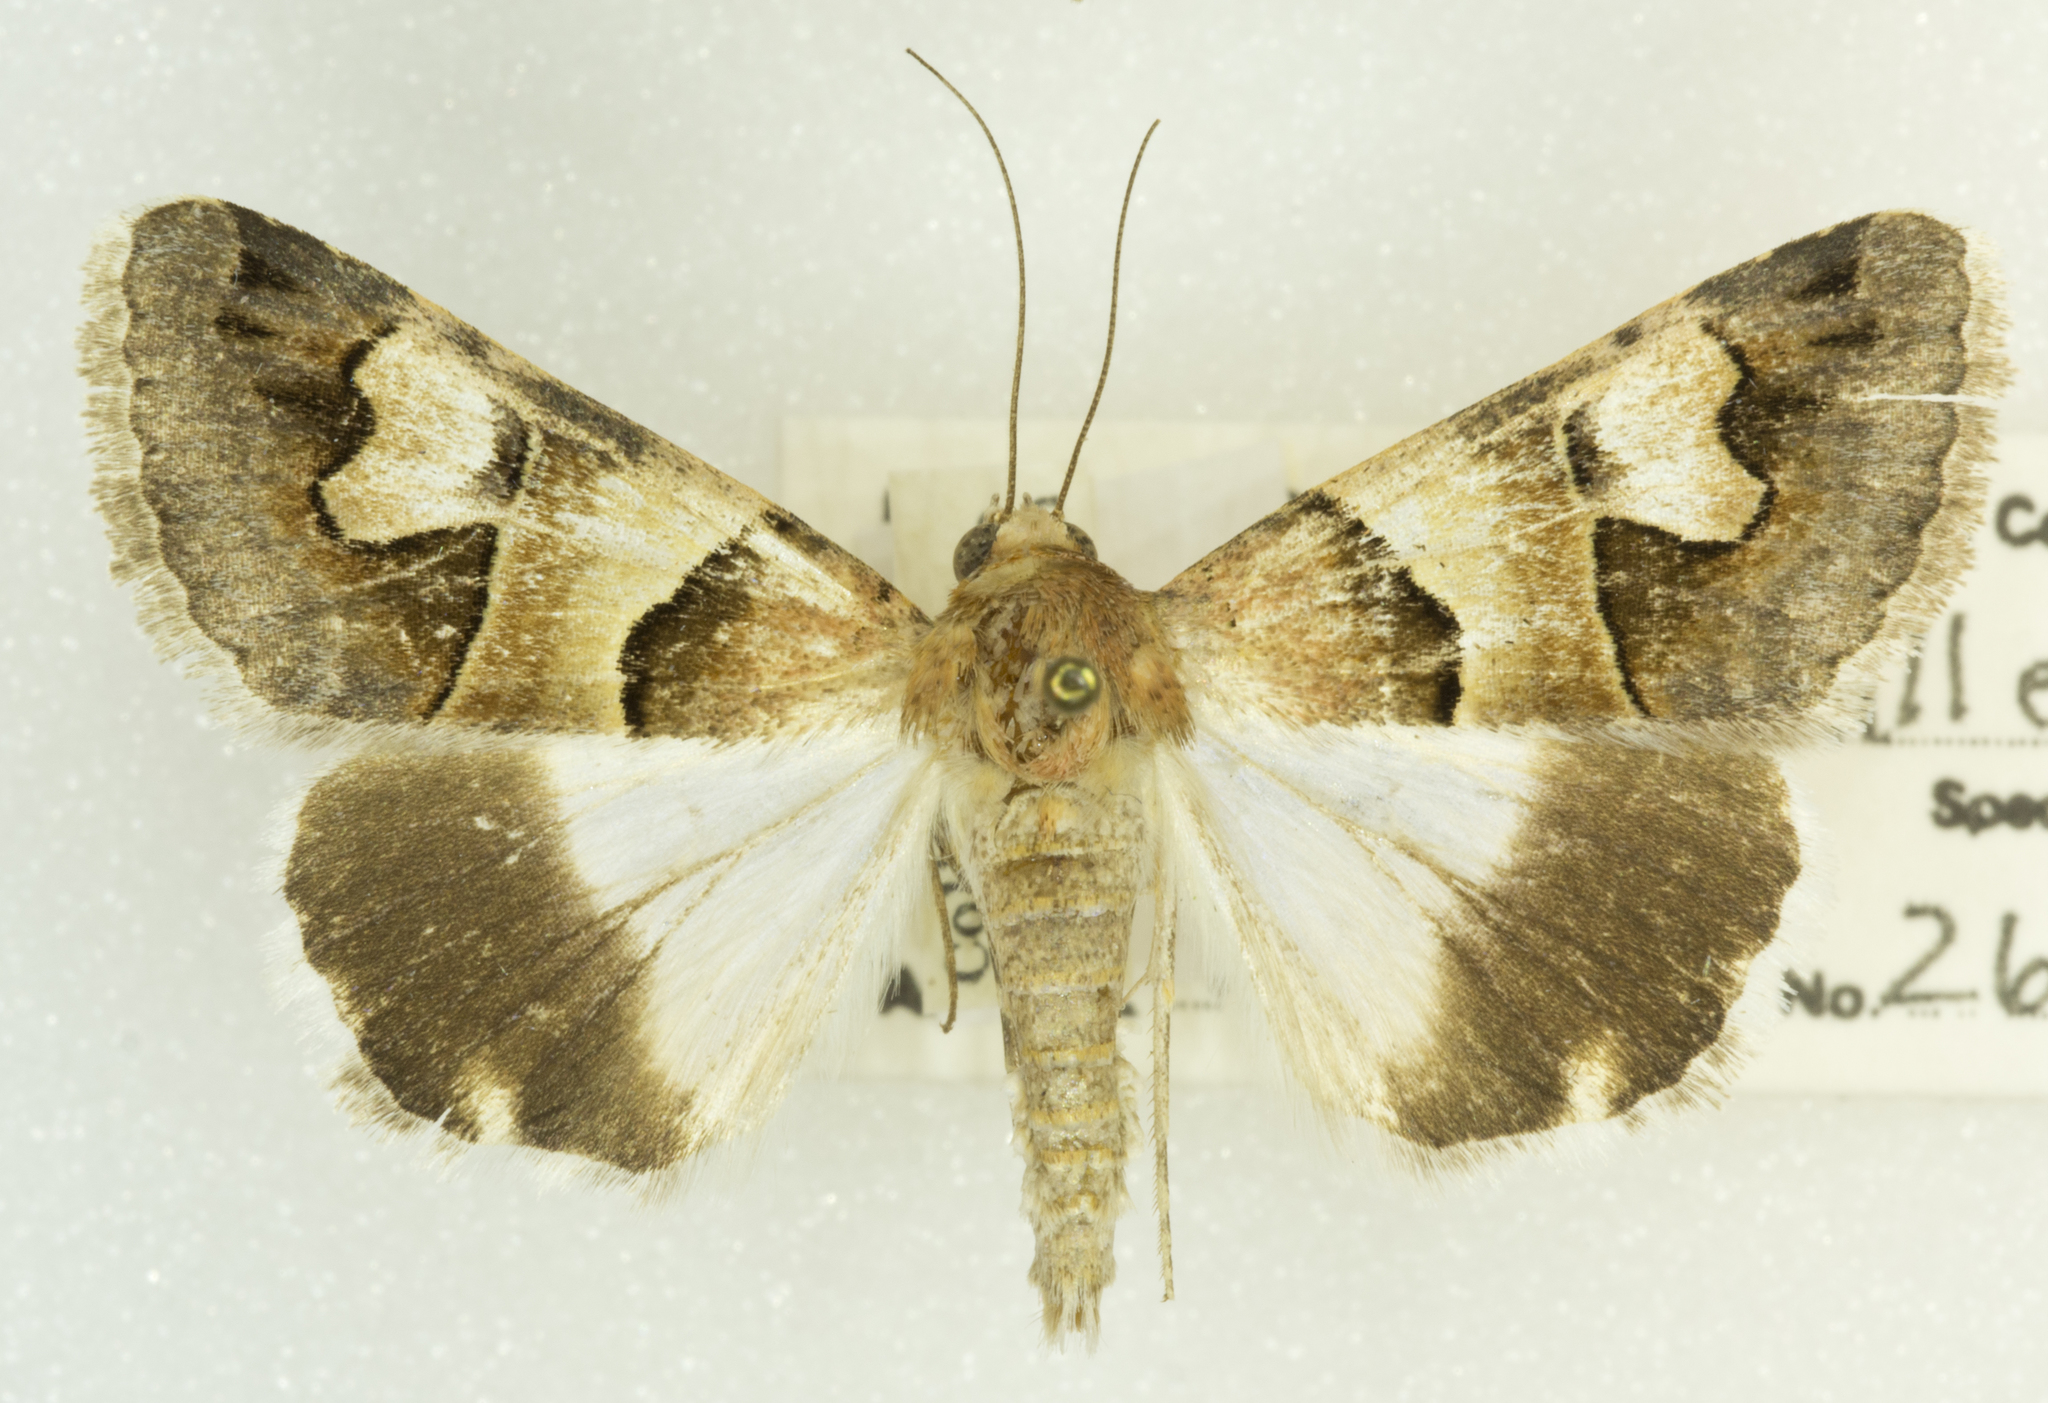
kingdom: Animalia
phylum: Arthropoda
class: Insecta
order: Lepidoptera
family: Erebidae
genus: Drasteria
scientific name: Drasteria pallescens
